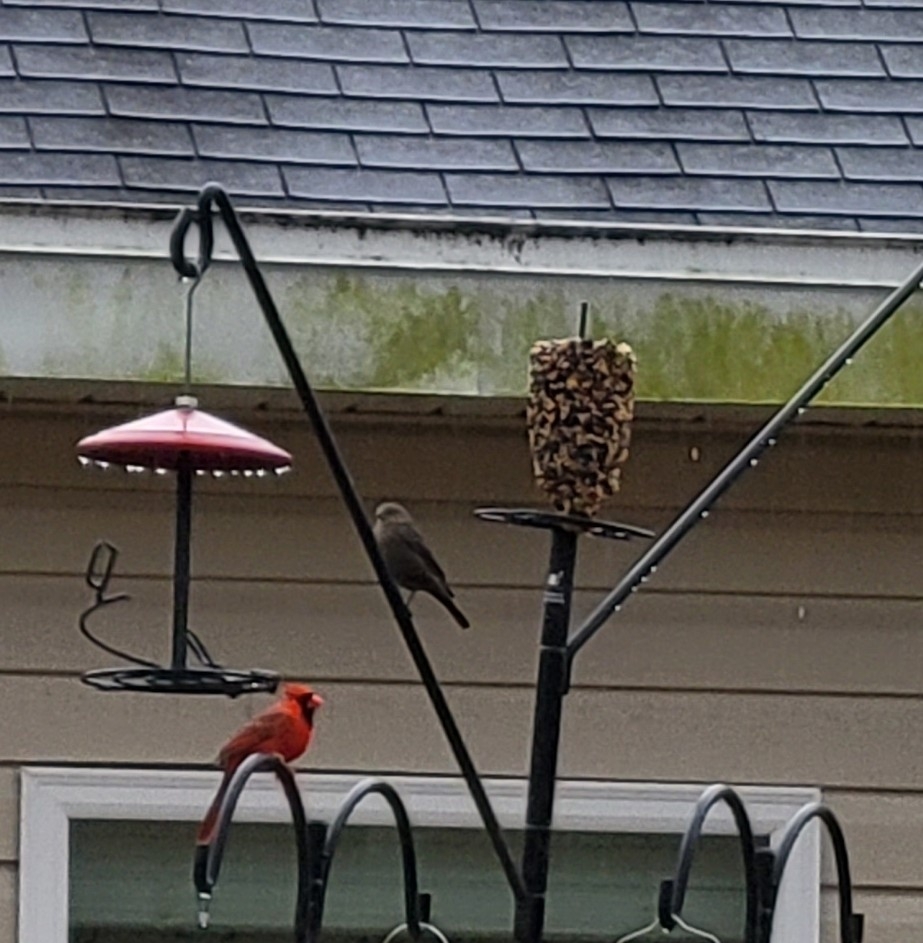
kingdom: Animalia
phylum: Chordata
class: Aves
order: Passeriformes
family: Icteridae
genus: Molothrus
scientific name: Molothrus ater
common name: Brown-headed cowbird
